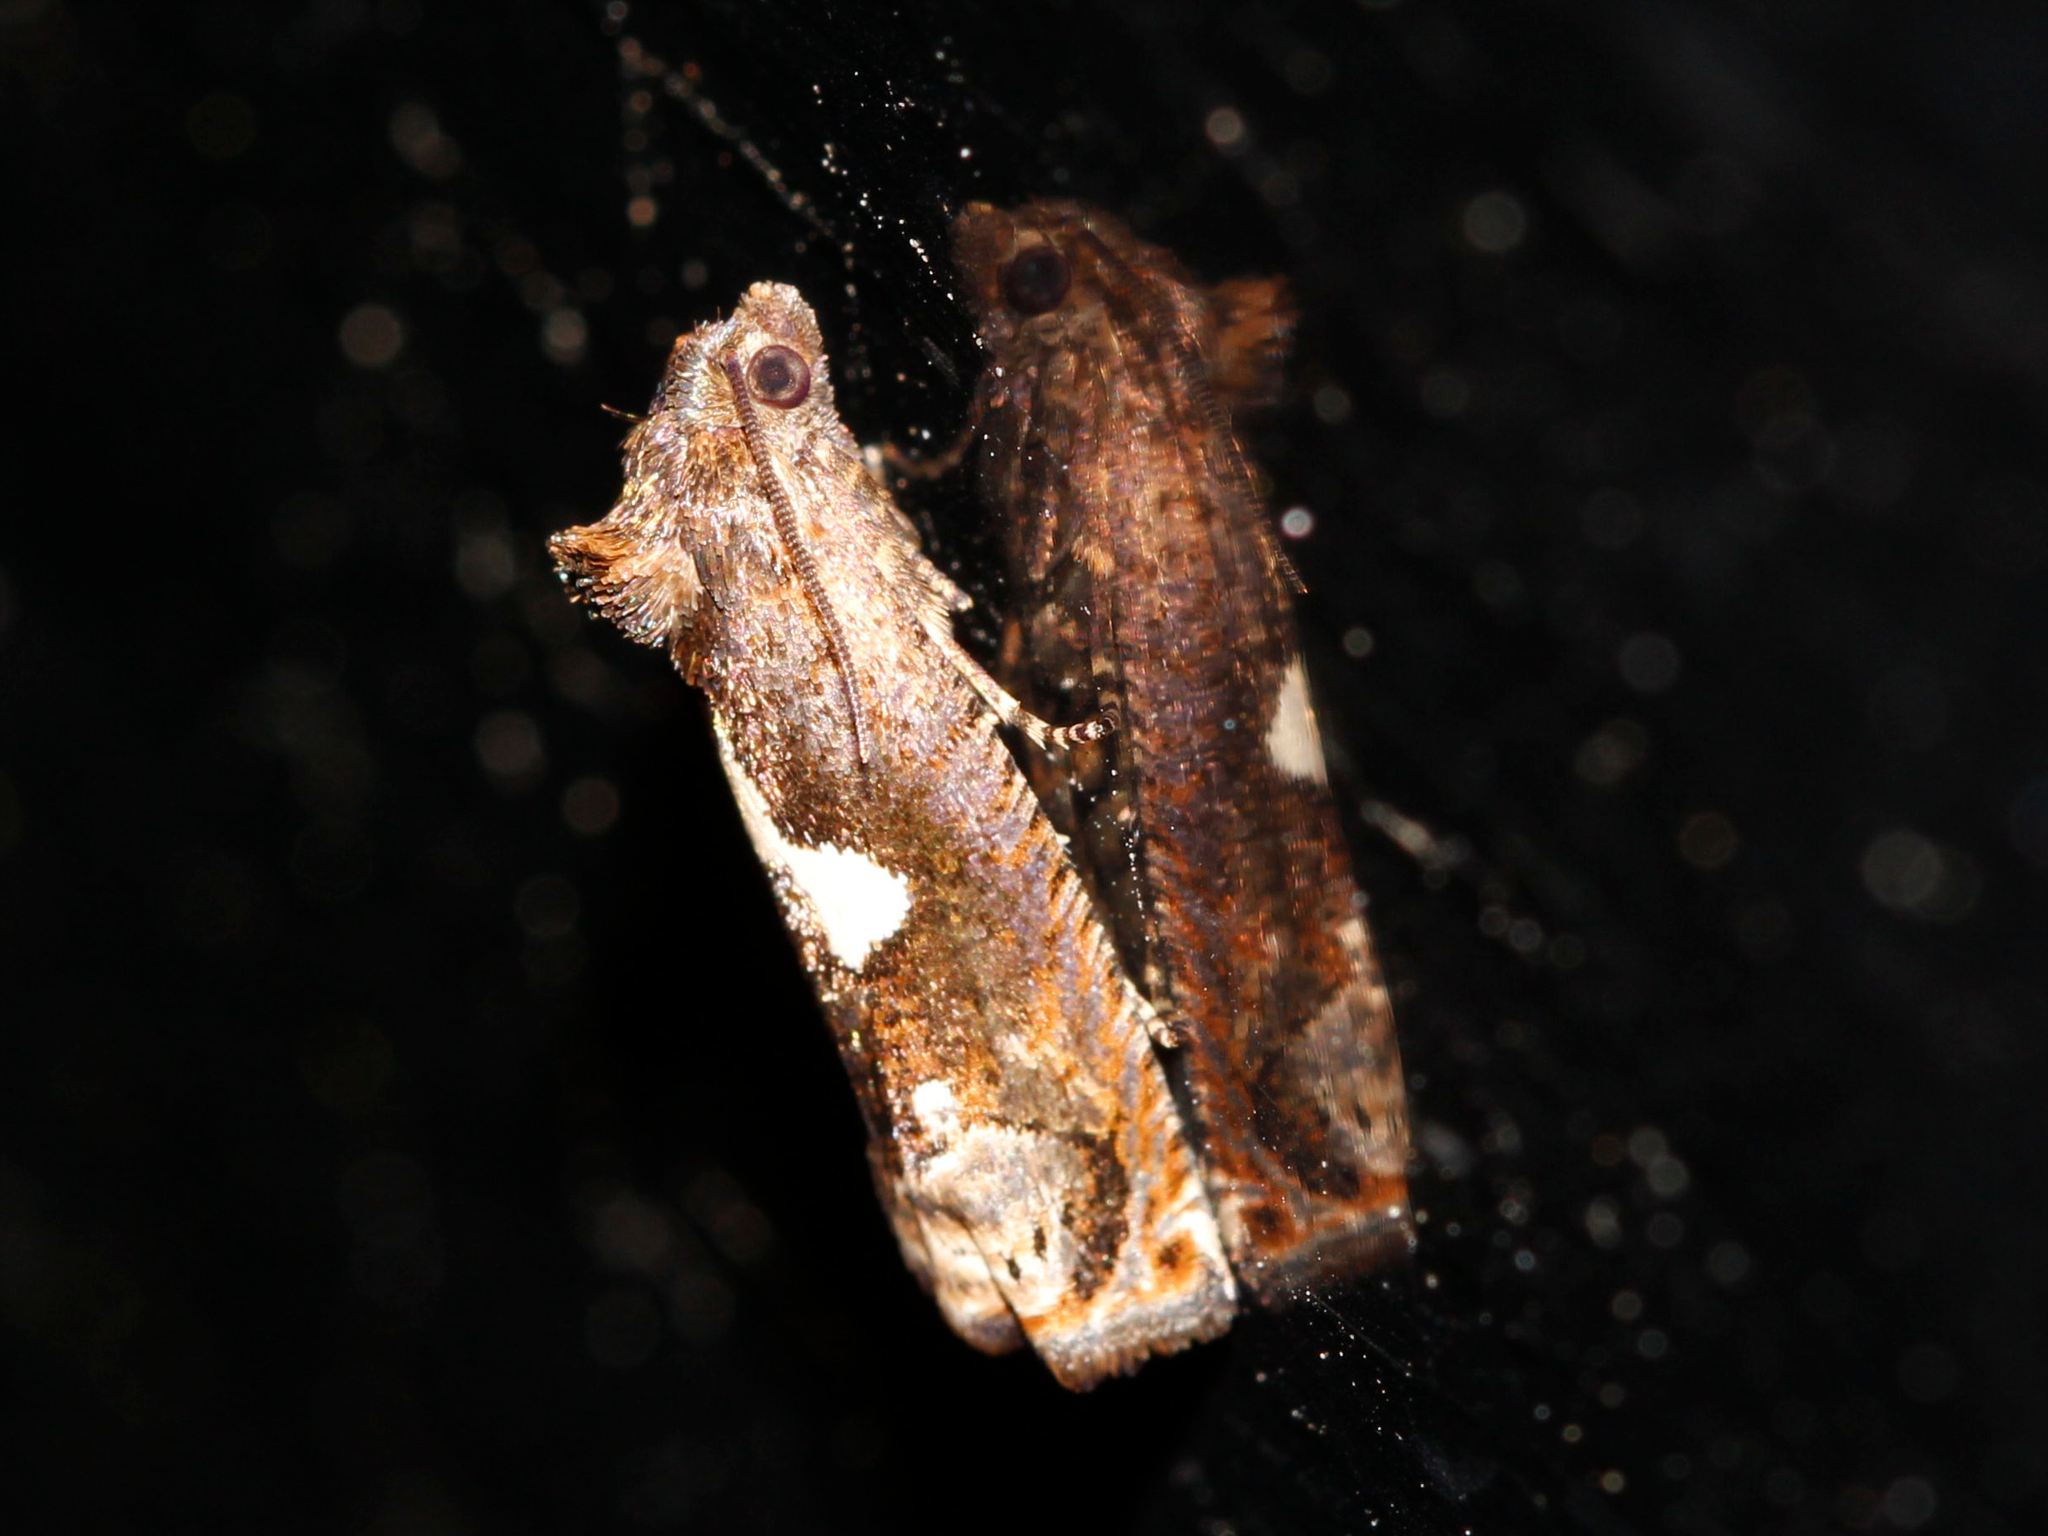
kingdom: Animalia
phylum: Arthropoda
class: Insecta
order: Lepidoptera
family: Tortricidae
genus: Epiblema
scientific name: Epiblema otiosana
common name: Bidens borer moth
